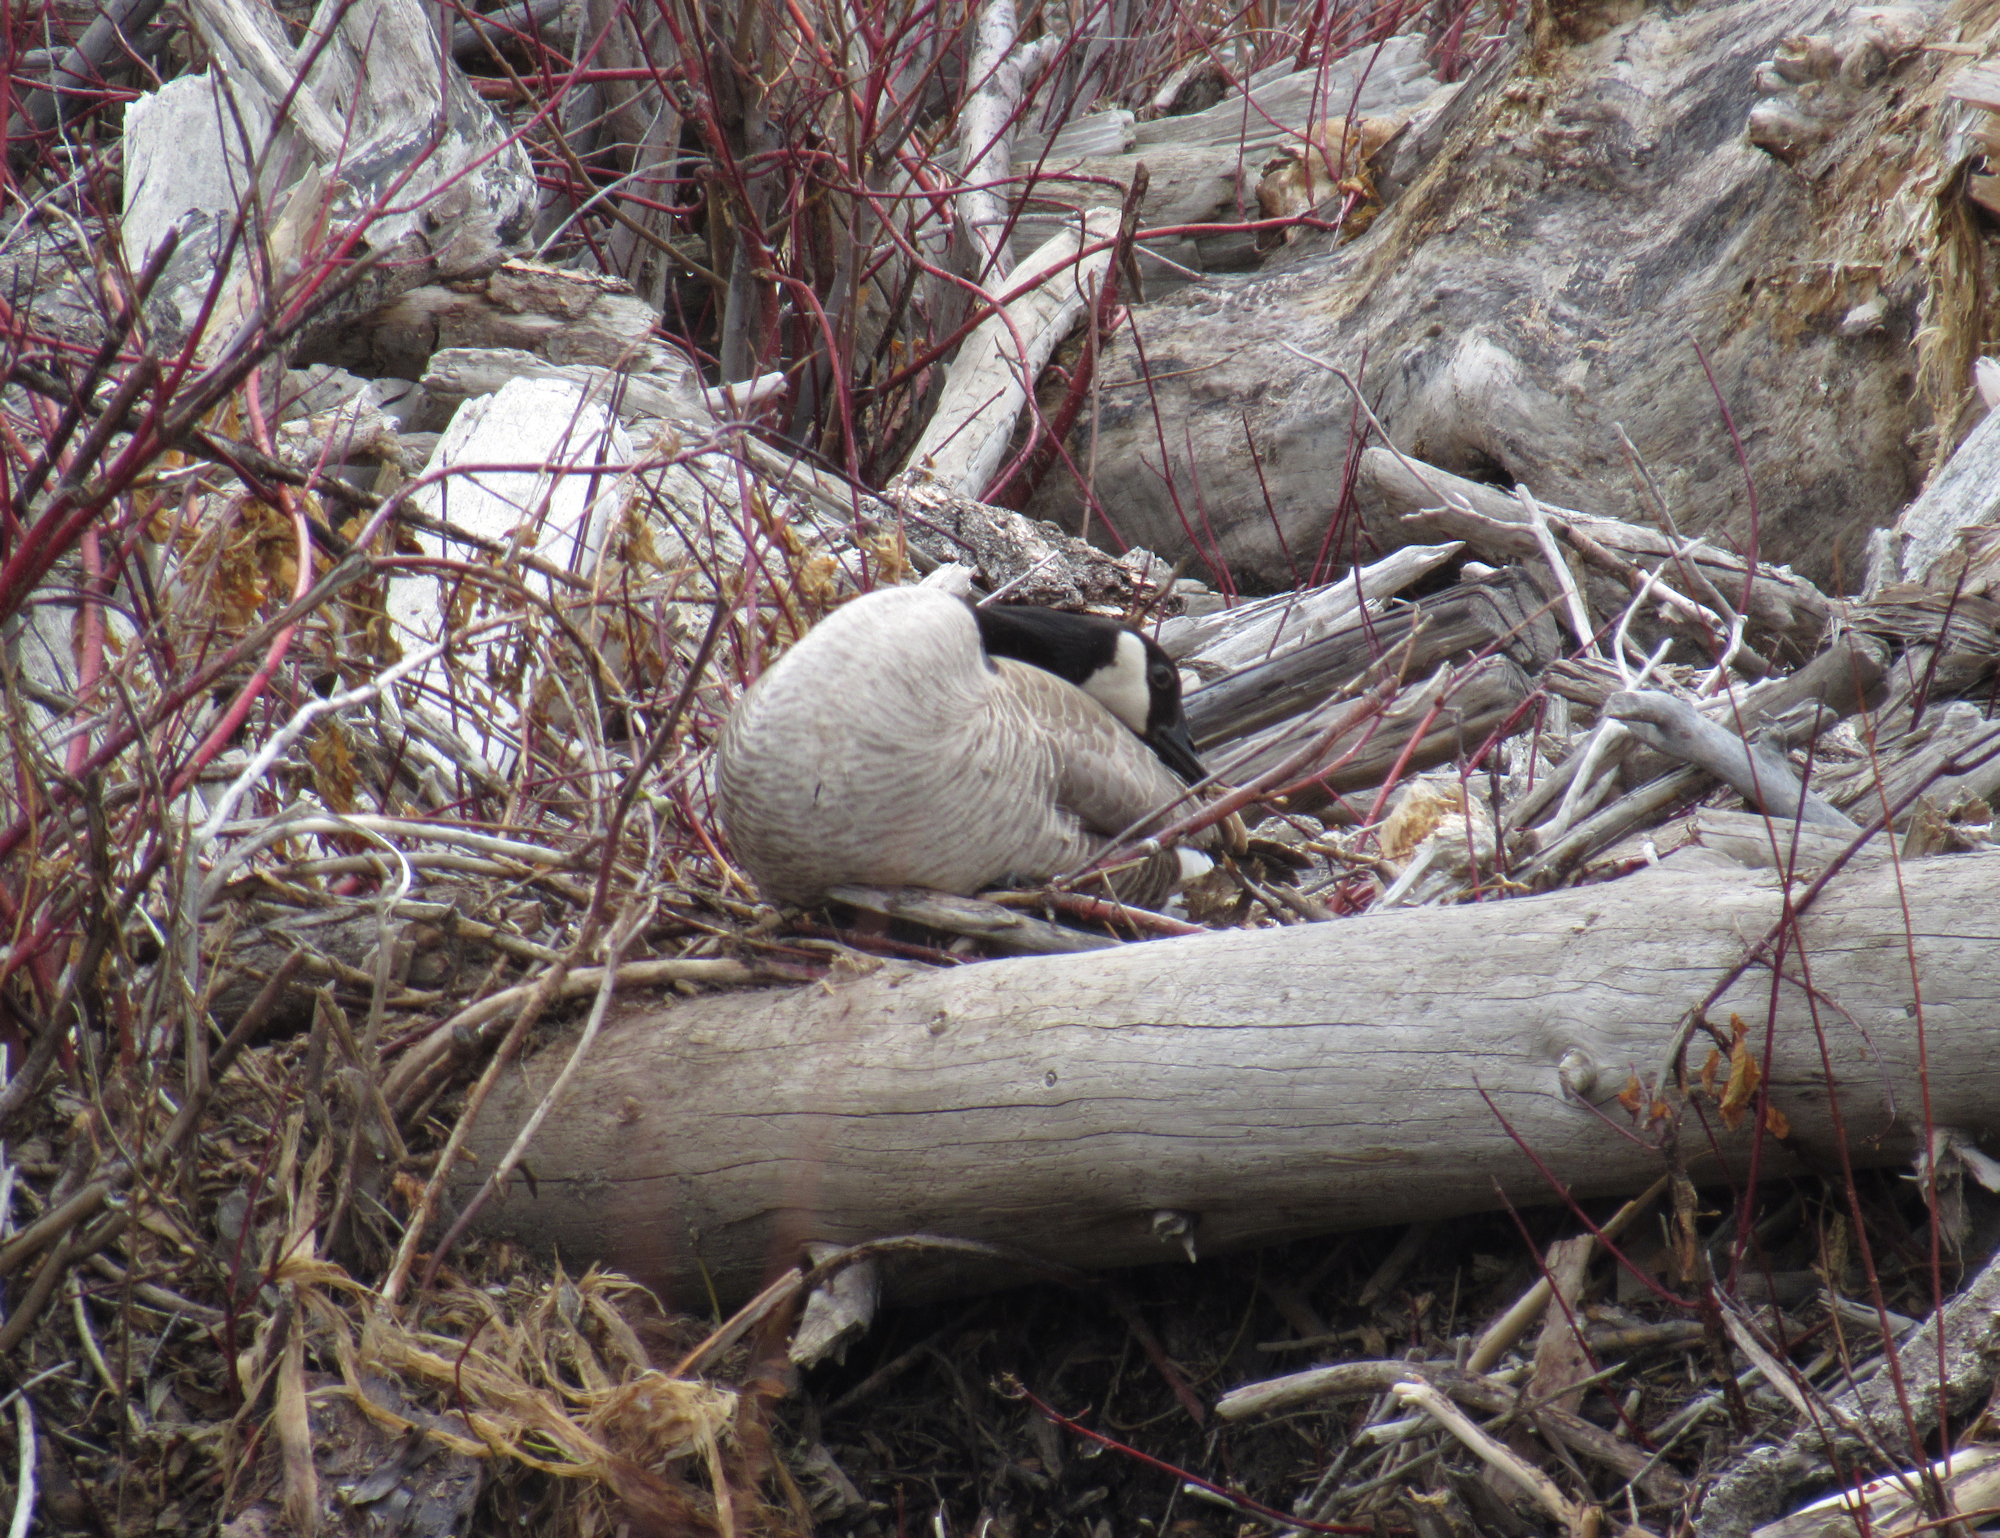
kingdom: Animalia
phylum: Chordata
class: Aves
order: Anseriformes
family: Anatidae
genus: Branta
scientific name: Branta canadensis
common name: Canada goose
